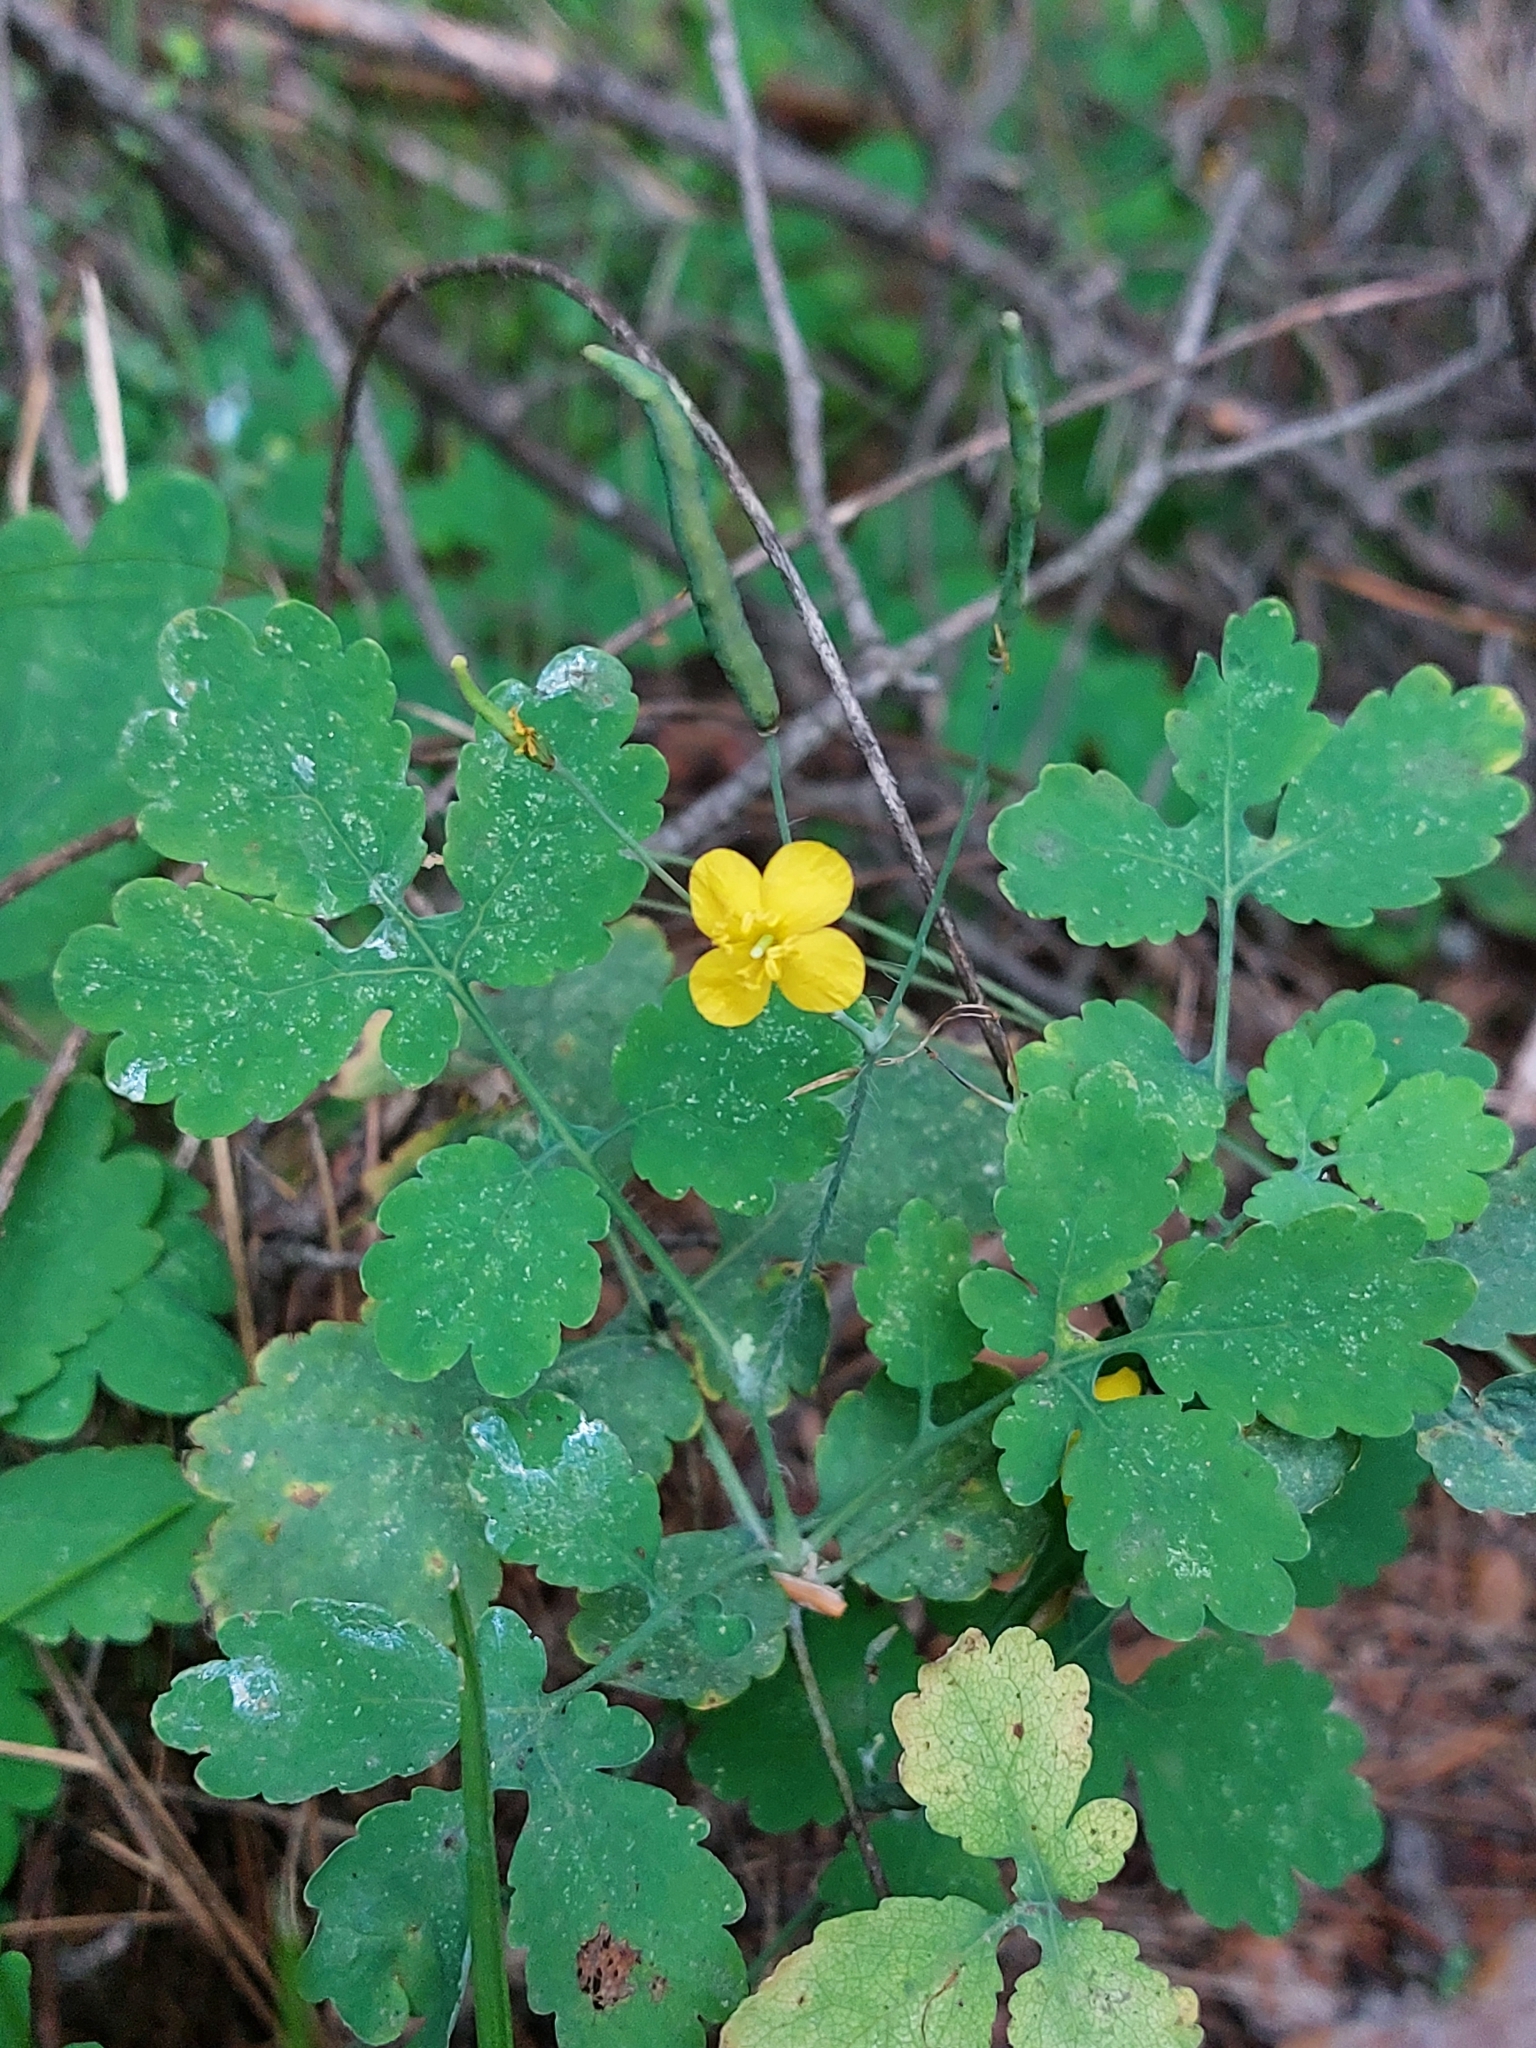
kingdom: Plantae
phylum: Tracheophyta
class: Magnoliopsida
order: Ranunculales
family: Papaveraceae
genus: Chelidonium
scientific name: Chelidonium majus
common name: Greater celandine
